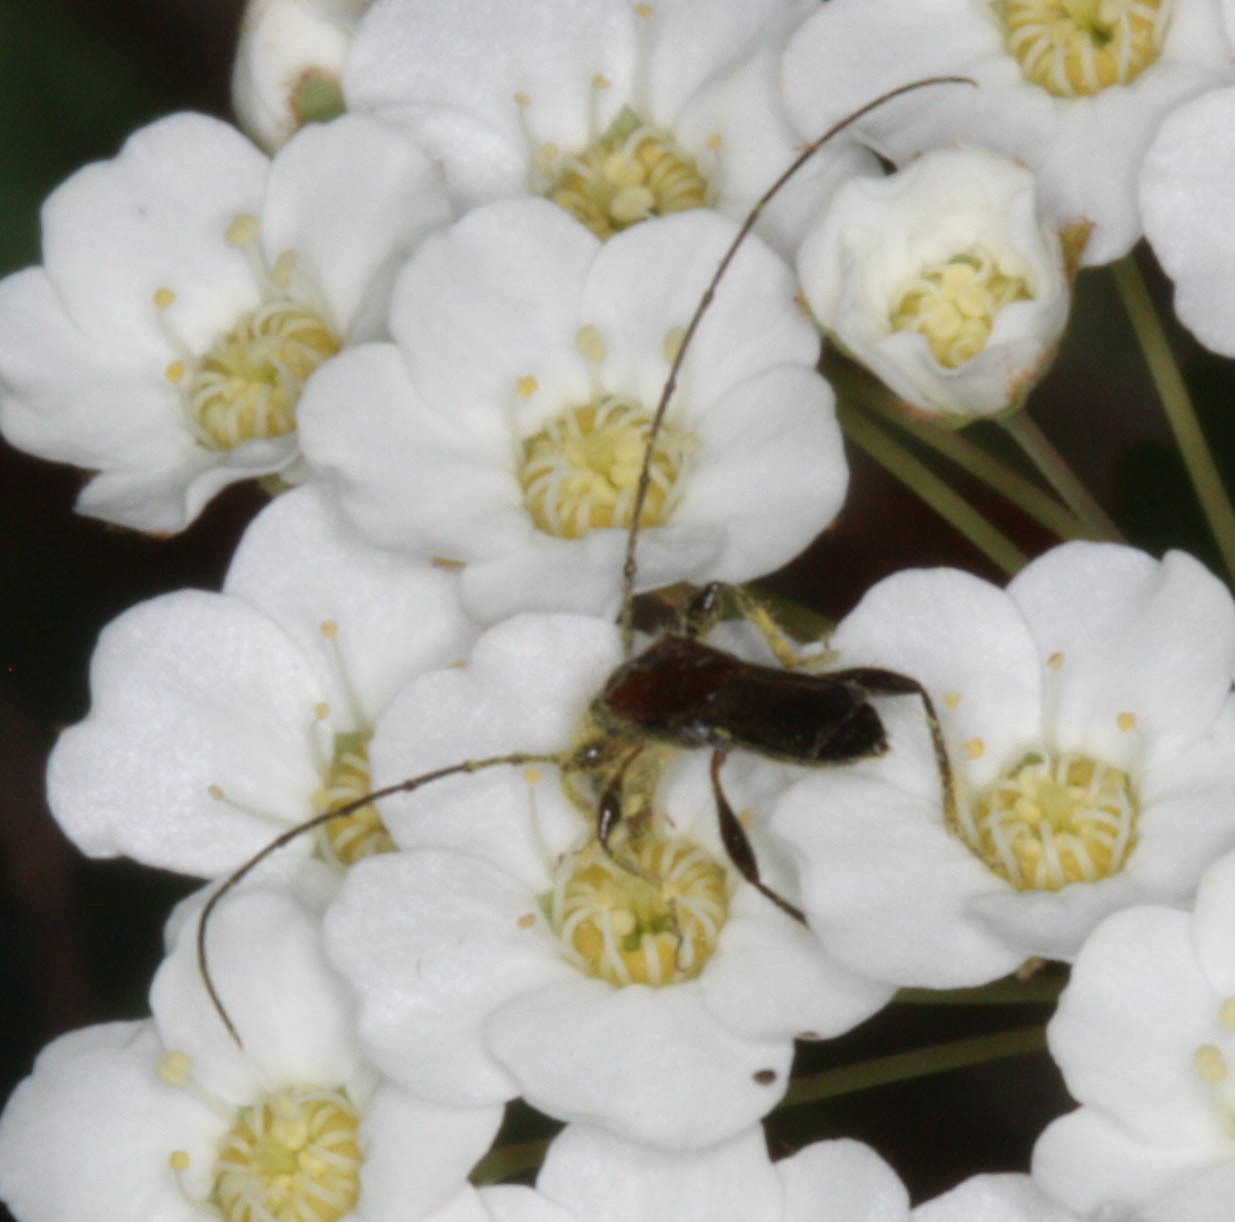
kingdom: Animalia
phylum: Arthropoda
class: Insecta
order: Coleoptera
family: Cerambycidae
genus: Molorchus
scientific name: Molorchus longicollis
